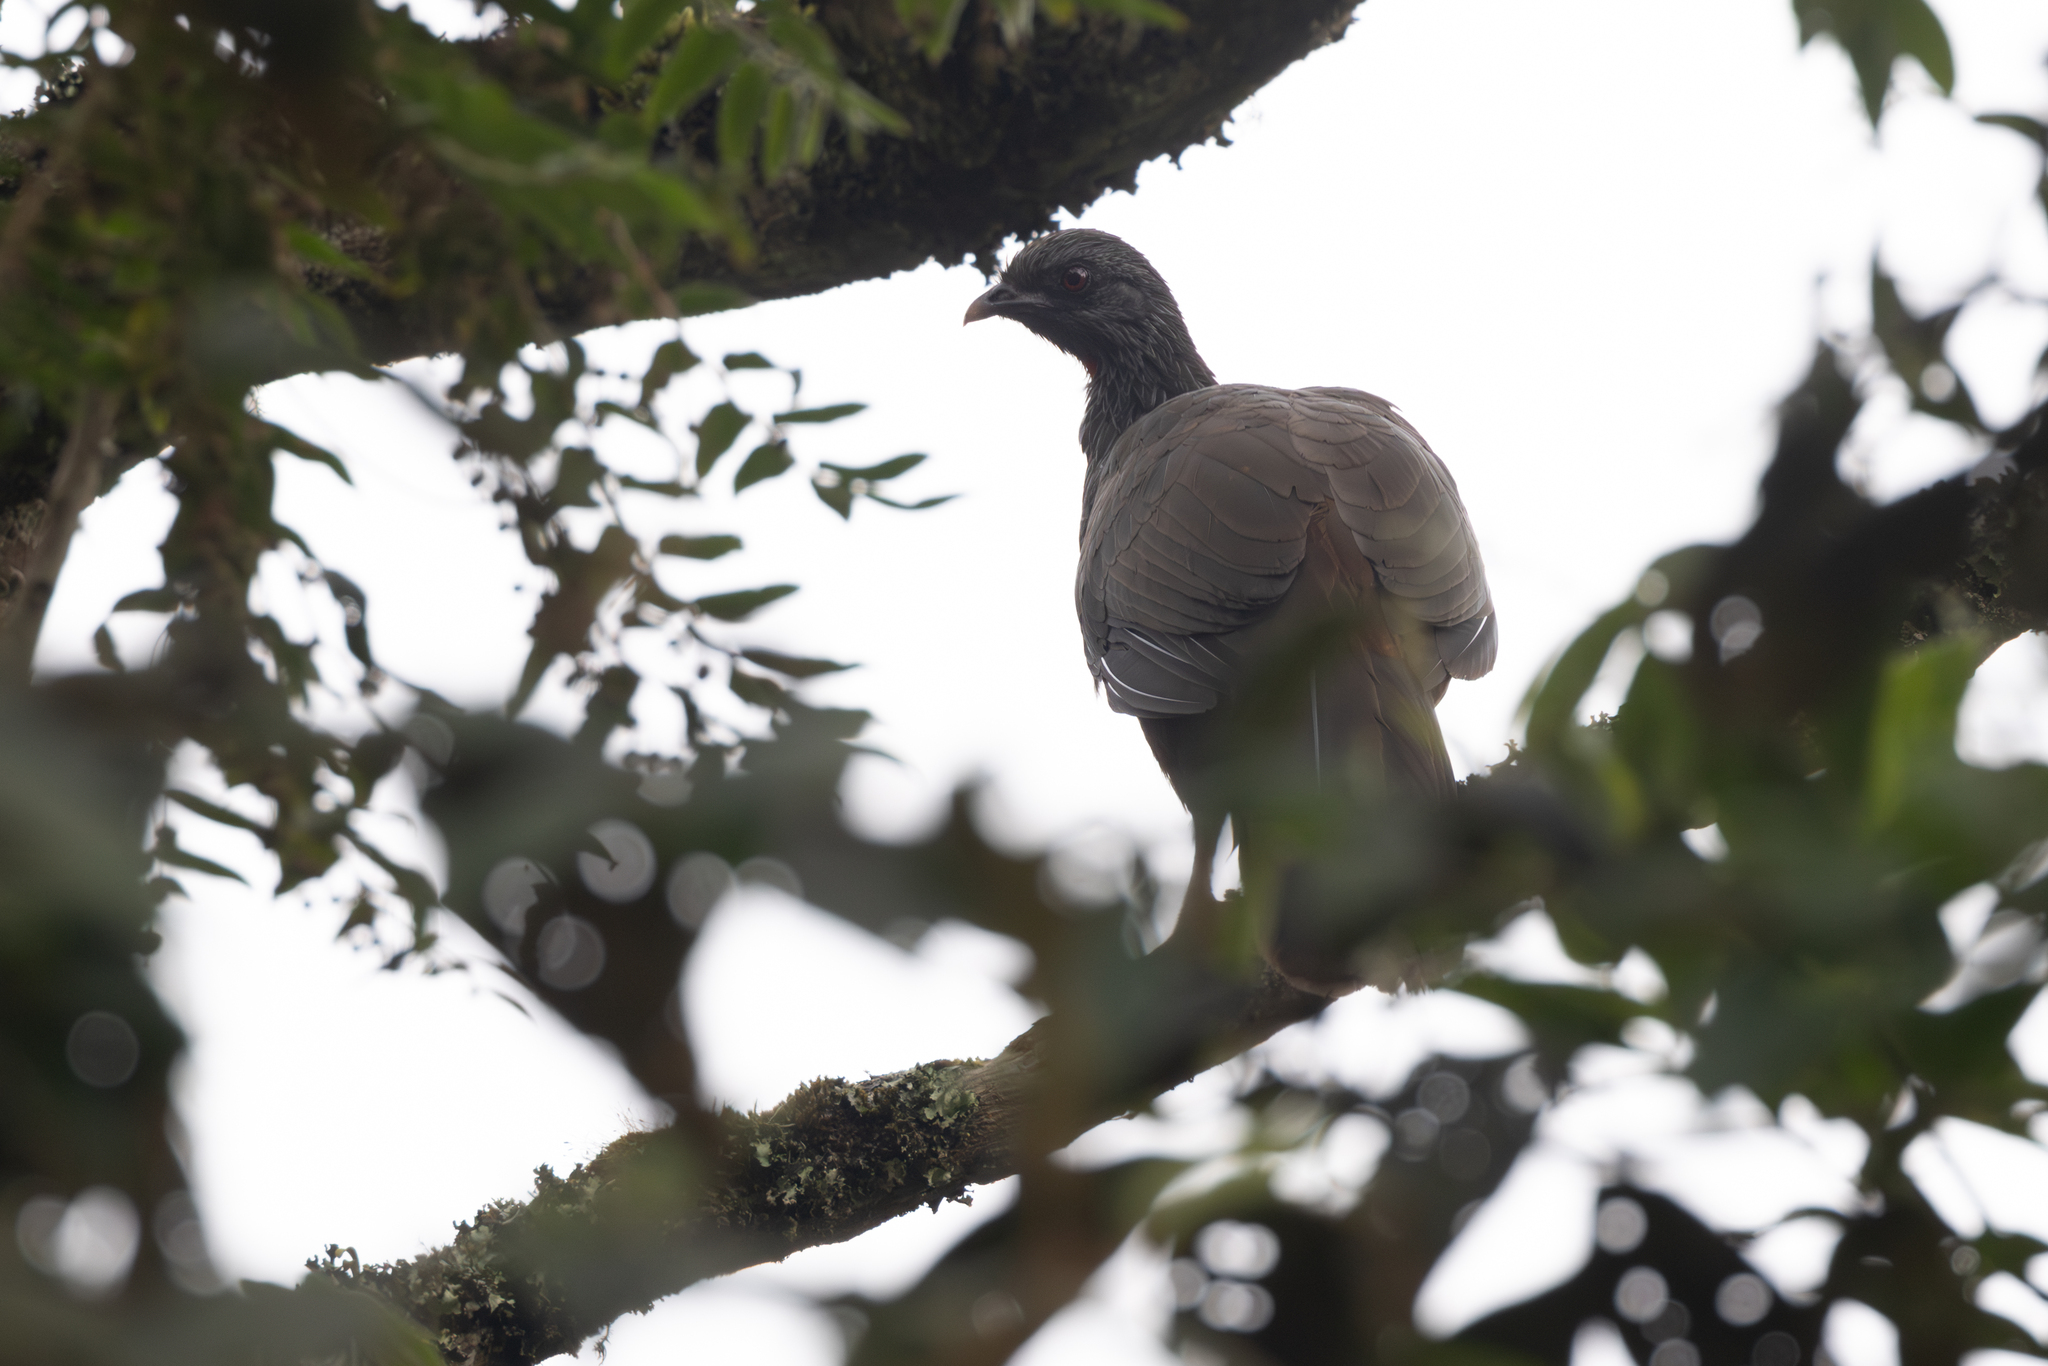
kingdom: Animalia
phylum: Chordata
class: Aves
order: Galliformes
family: Cracidae
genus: Penelope
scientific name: Penelope montagnii
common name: Andean guan
